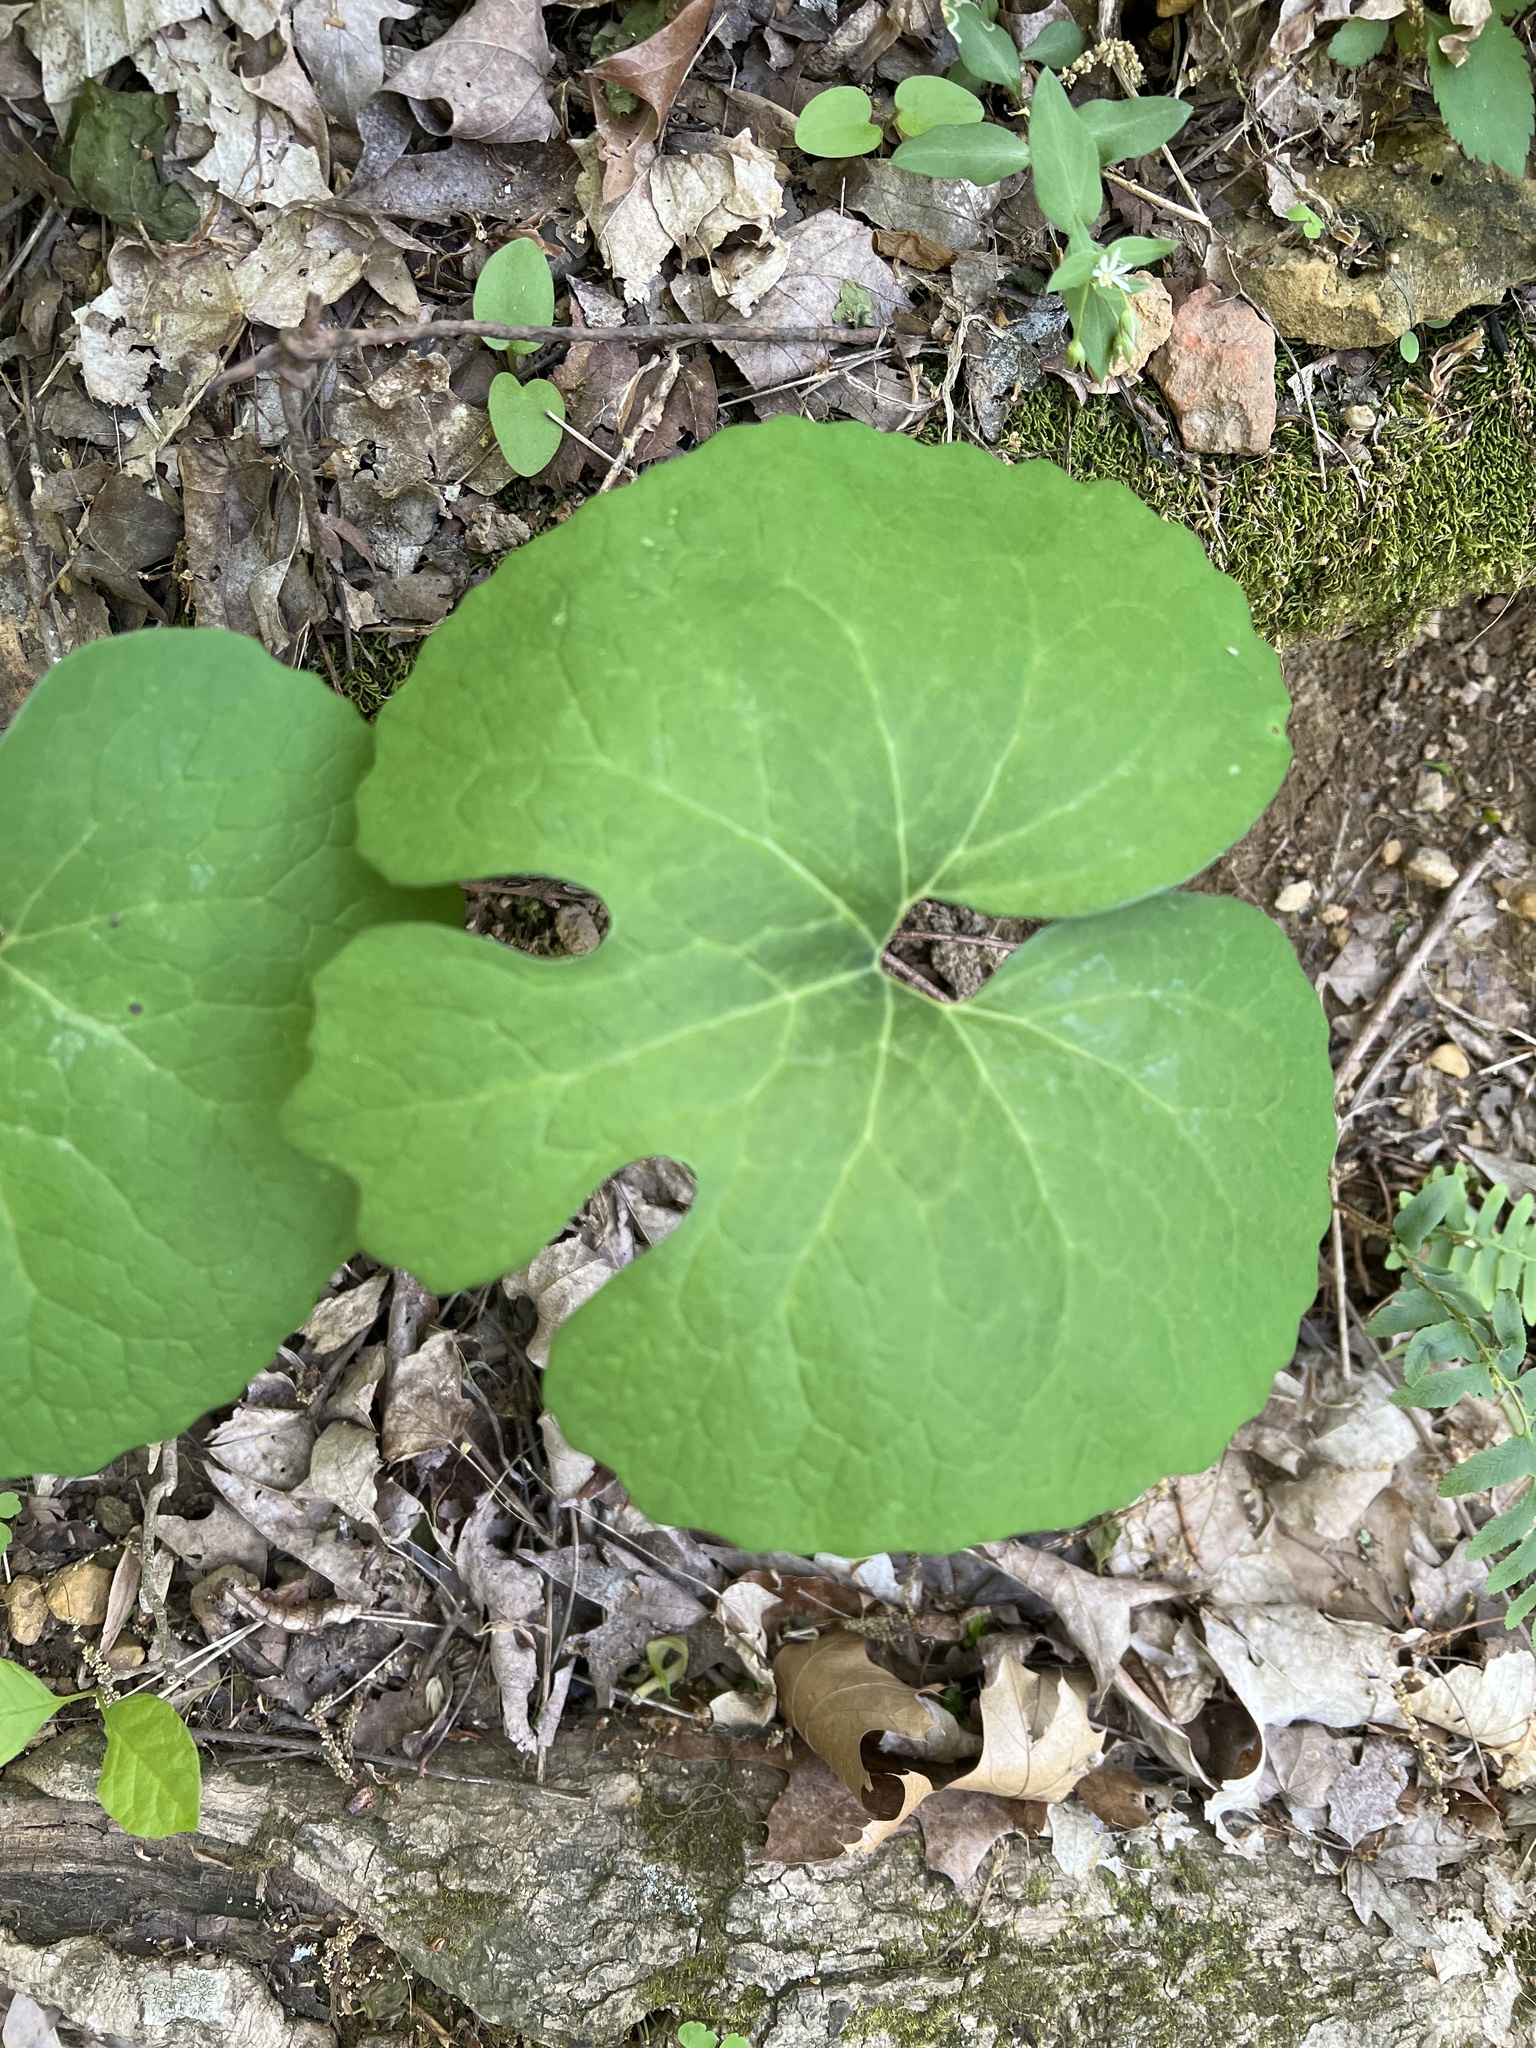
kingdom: Plantae
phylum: Tracheophyta
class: Magnoliopsida
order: Ranunculales
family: Papaveraceae
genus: Sanguinaria
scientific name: Sanguinaria canadensis
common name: Bloodroot
